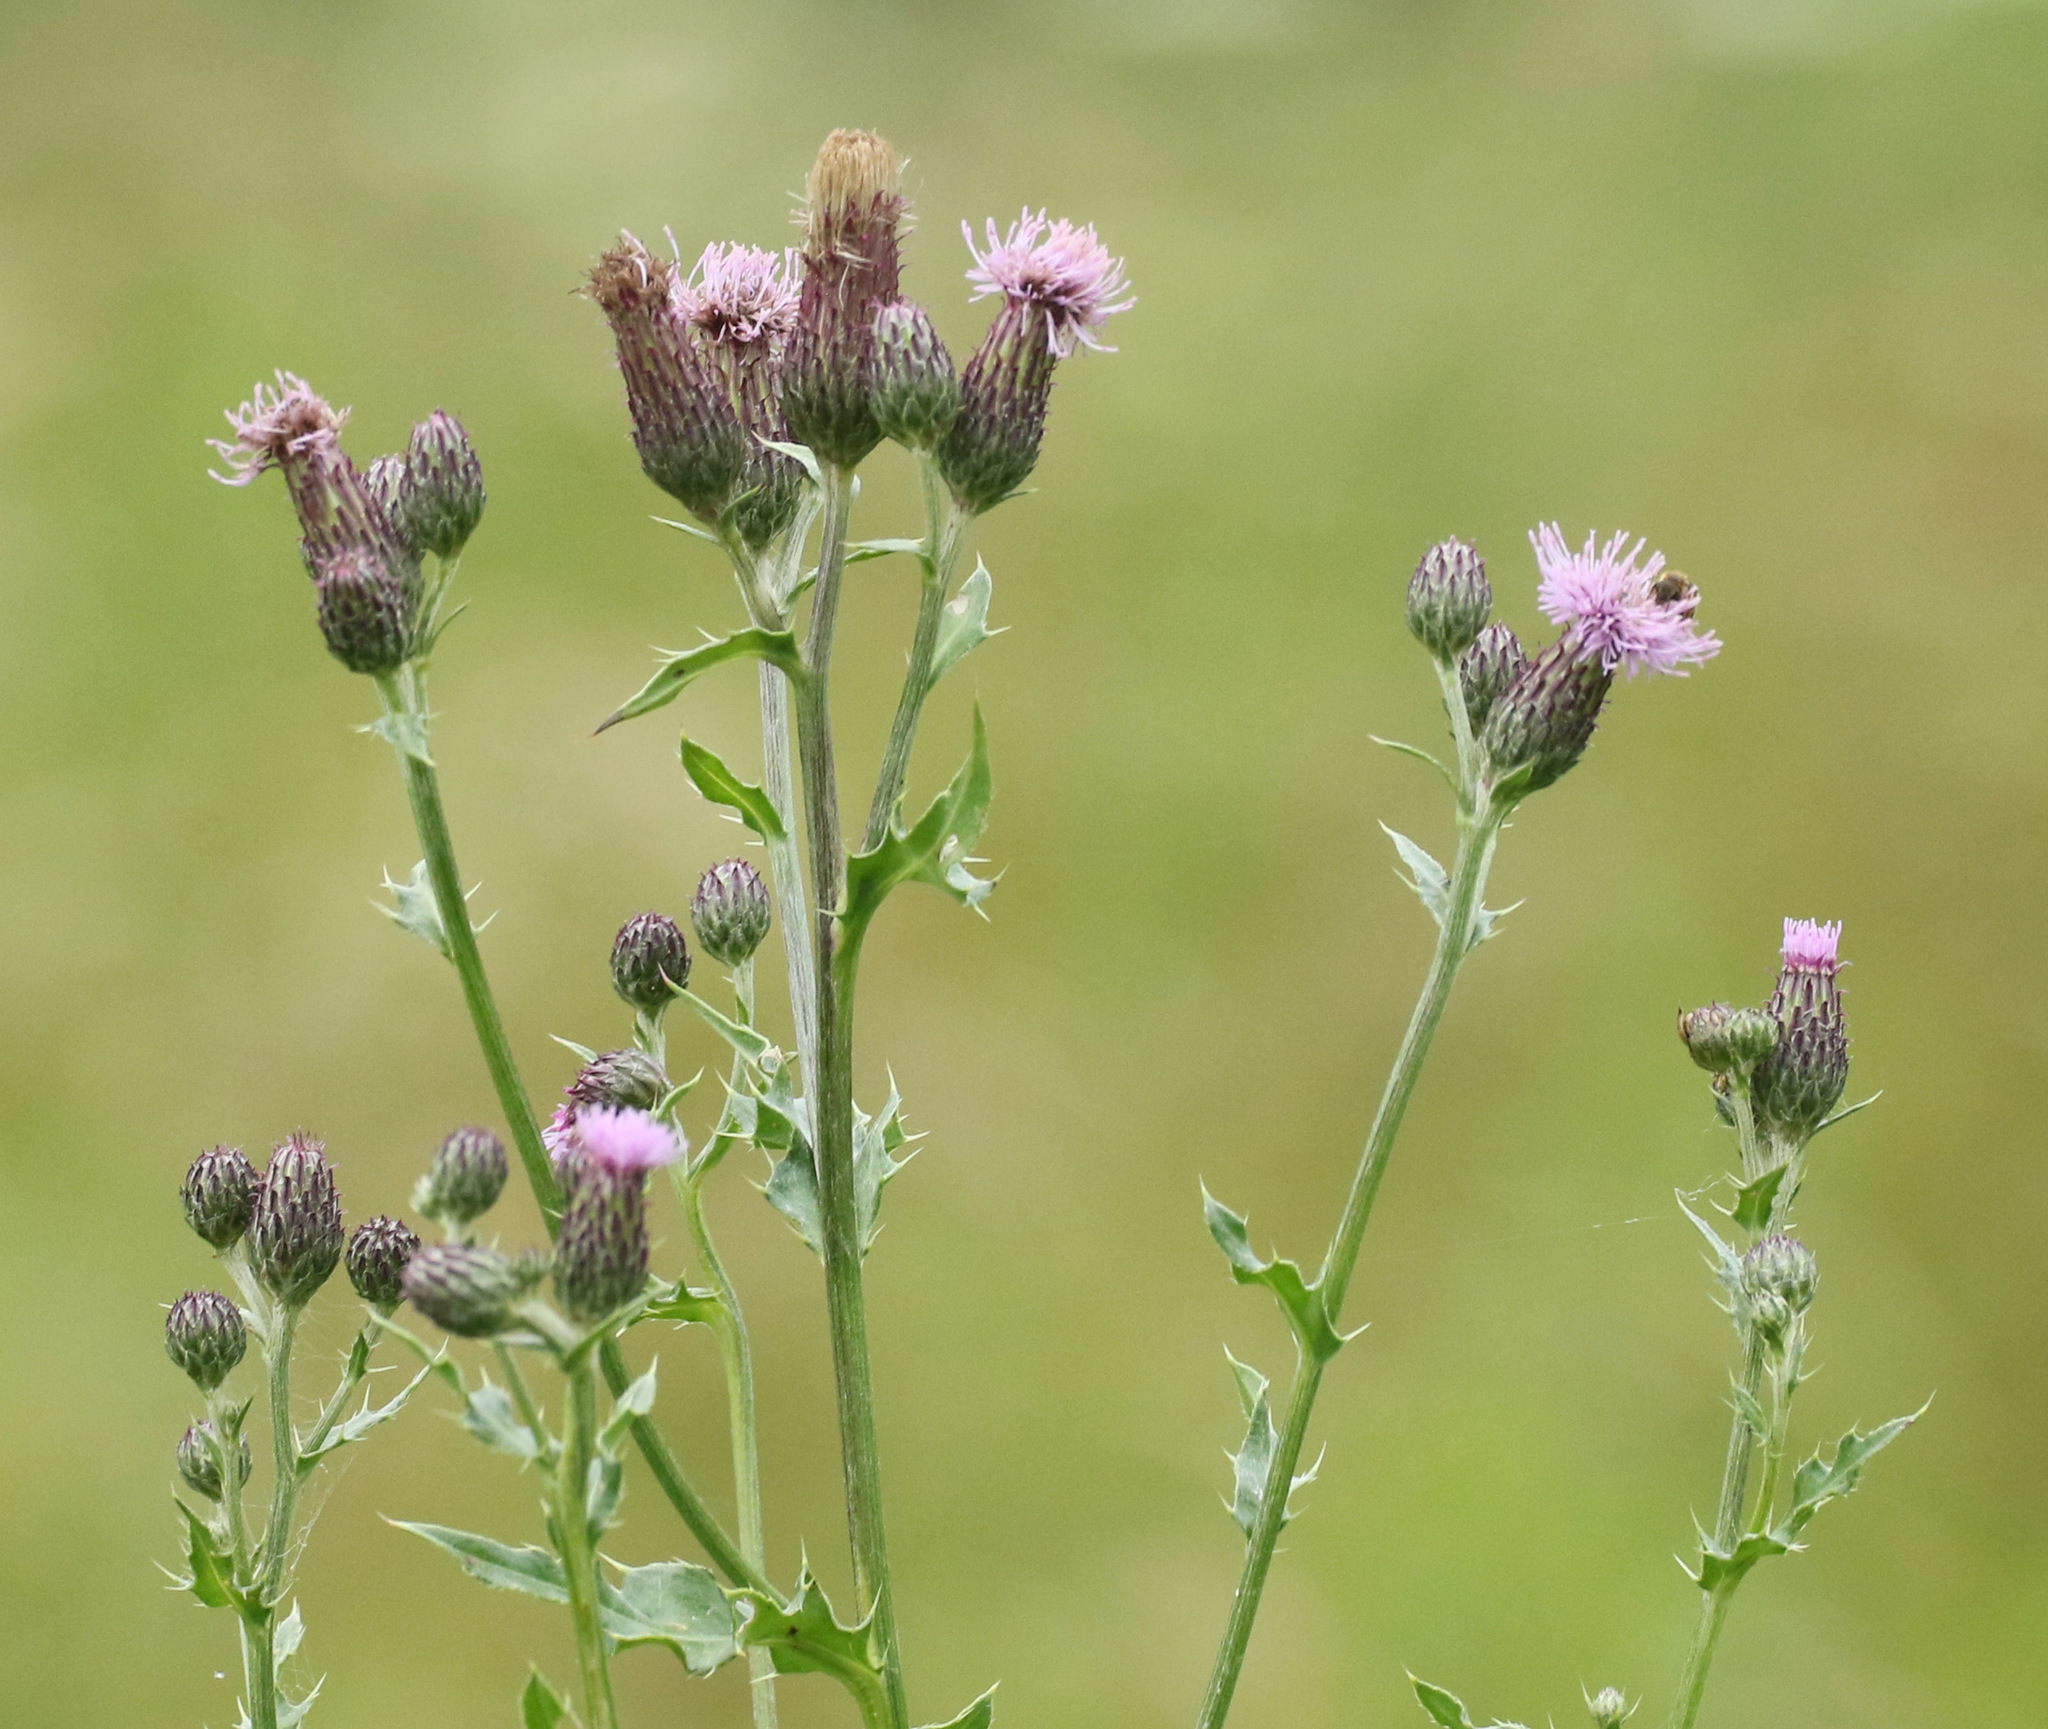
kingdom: Plantae
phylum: Tracheophyta
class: Magnoliopsida
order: Asterales
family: Asteraceae
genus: Cirsium
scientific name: Cirsium arvense
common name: Creeping thistle
